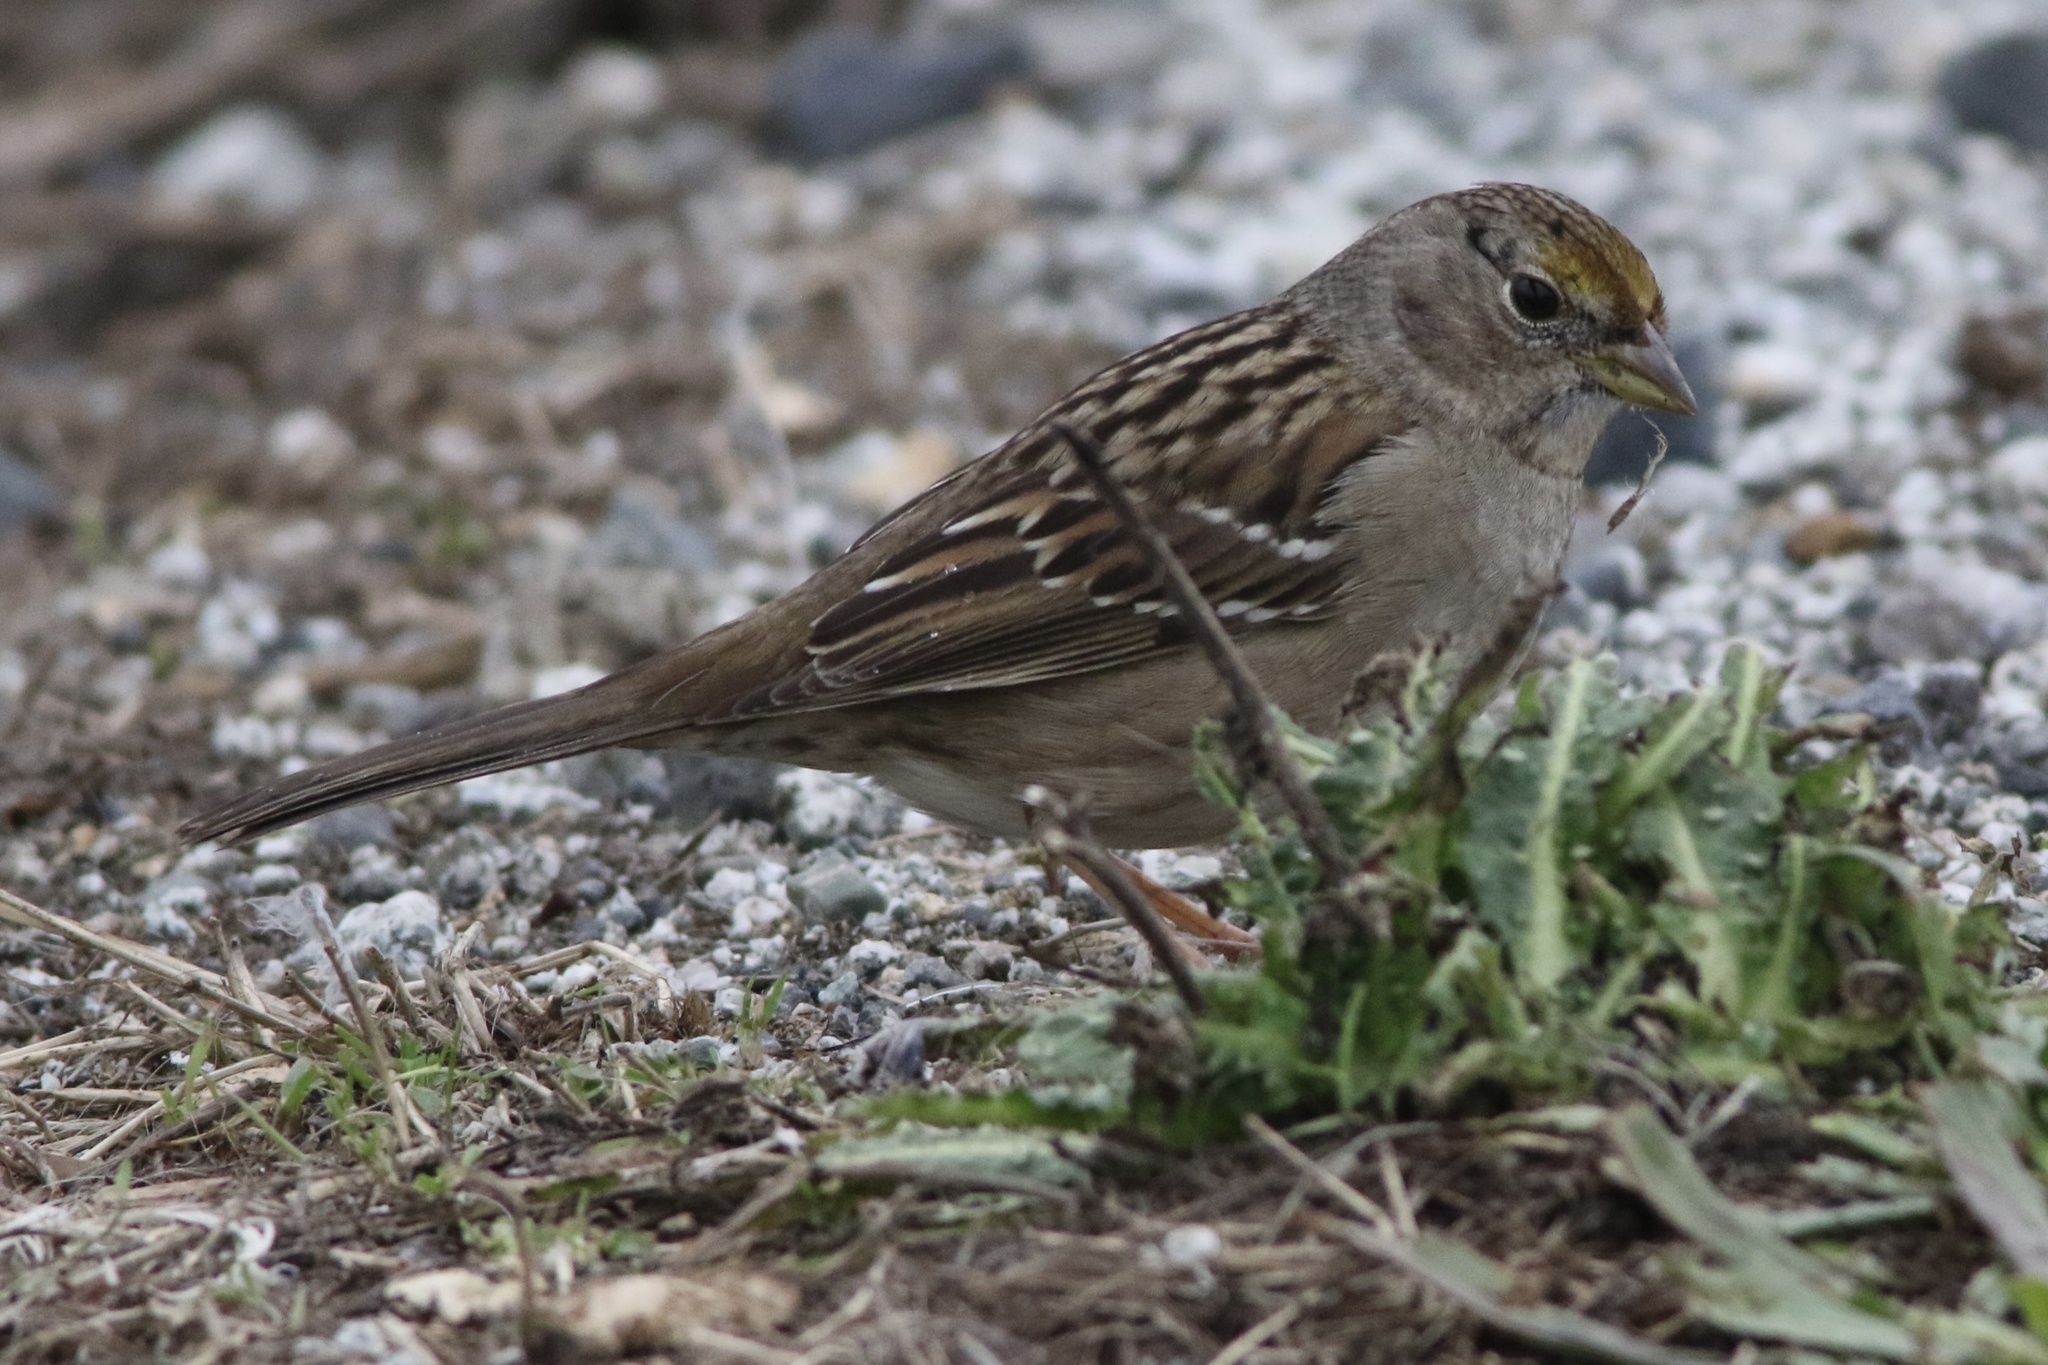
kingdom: Animalia
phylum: Chordata
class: Aves
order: Passeriformes
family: Passerellidae
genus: Zonotrichia
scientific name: Zonotrichia atricapilla
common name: Golden-crowned sparrow
